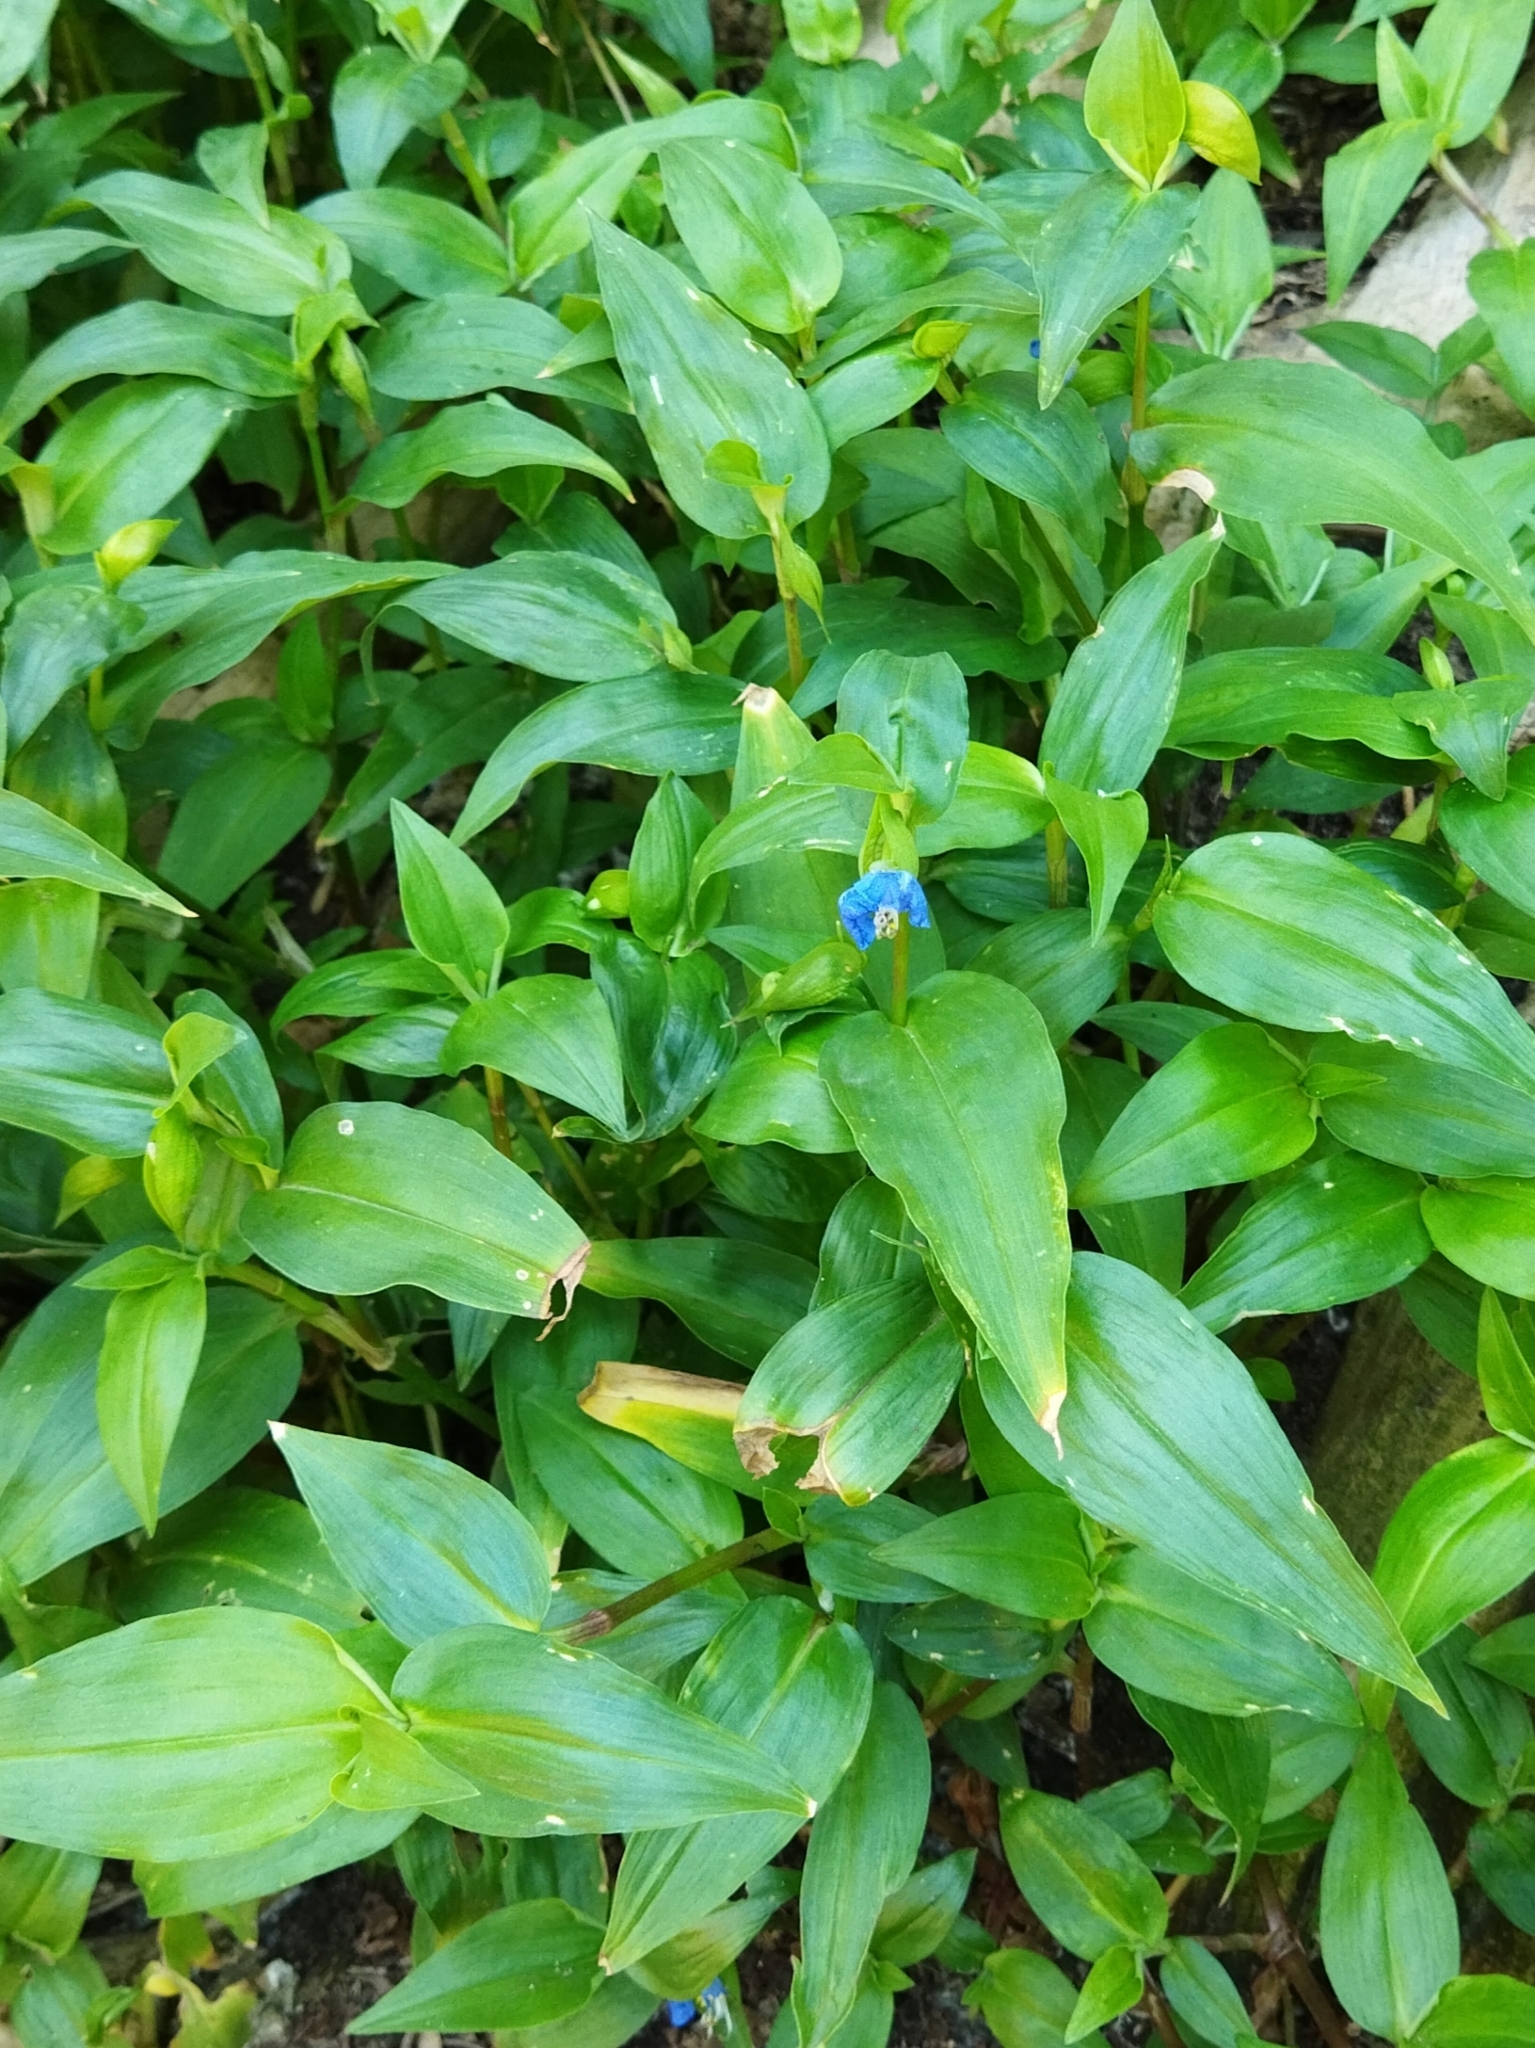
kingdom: Plantae
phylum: Tracheophyta
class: Liliopsida
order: Commelinales
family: Commelinaceae
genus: Commelina
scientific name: Commelina communis
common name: Asiatic dayflower
